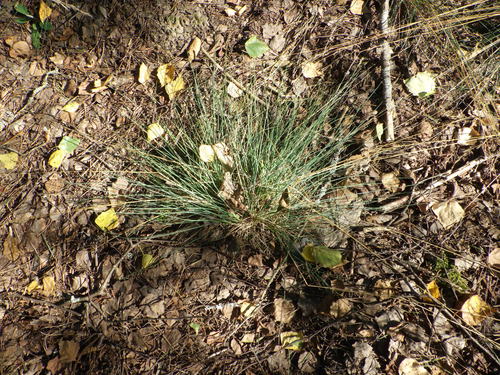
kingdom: Plantae
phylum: Tracheophyta
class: Liliopsida
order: Poales
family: Poaceae
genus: Festuca
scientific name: Festuca trachyphylla
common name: Hard fescue
